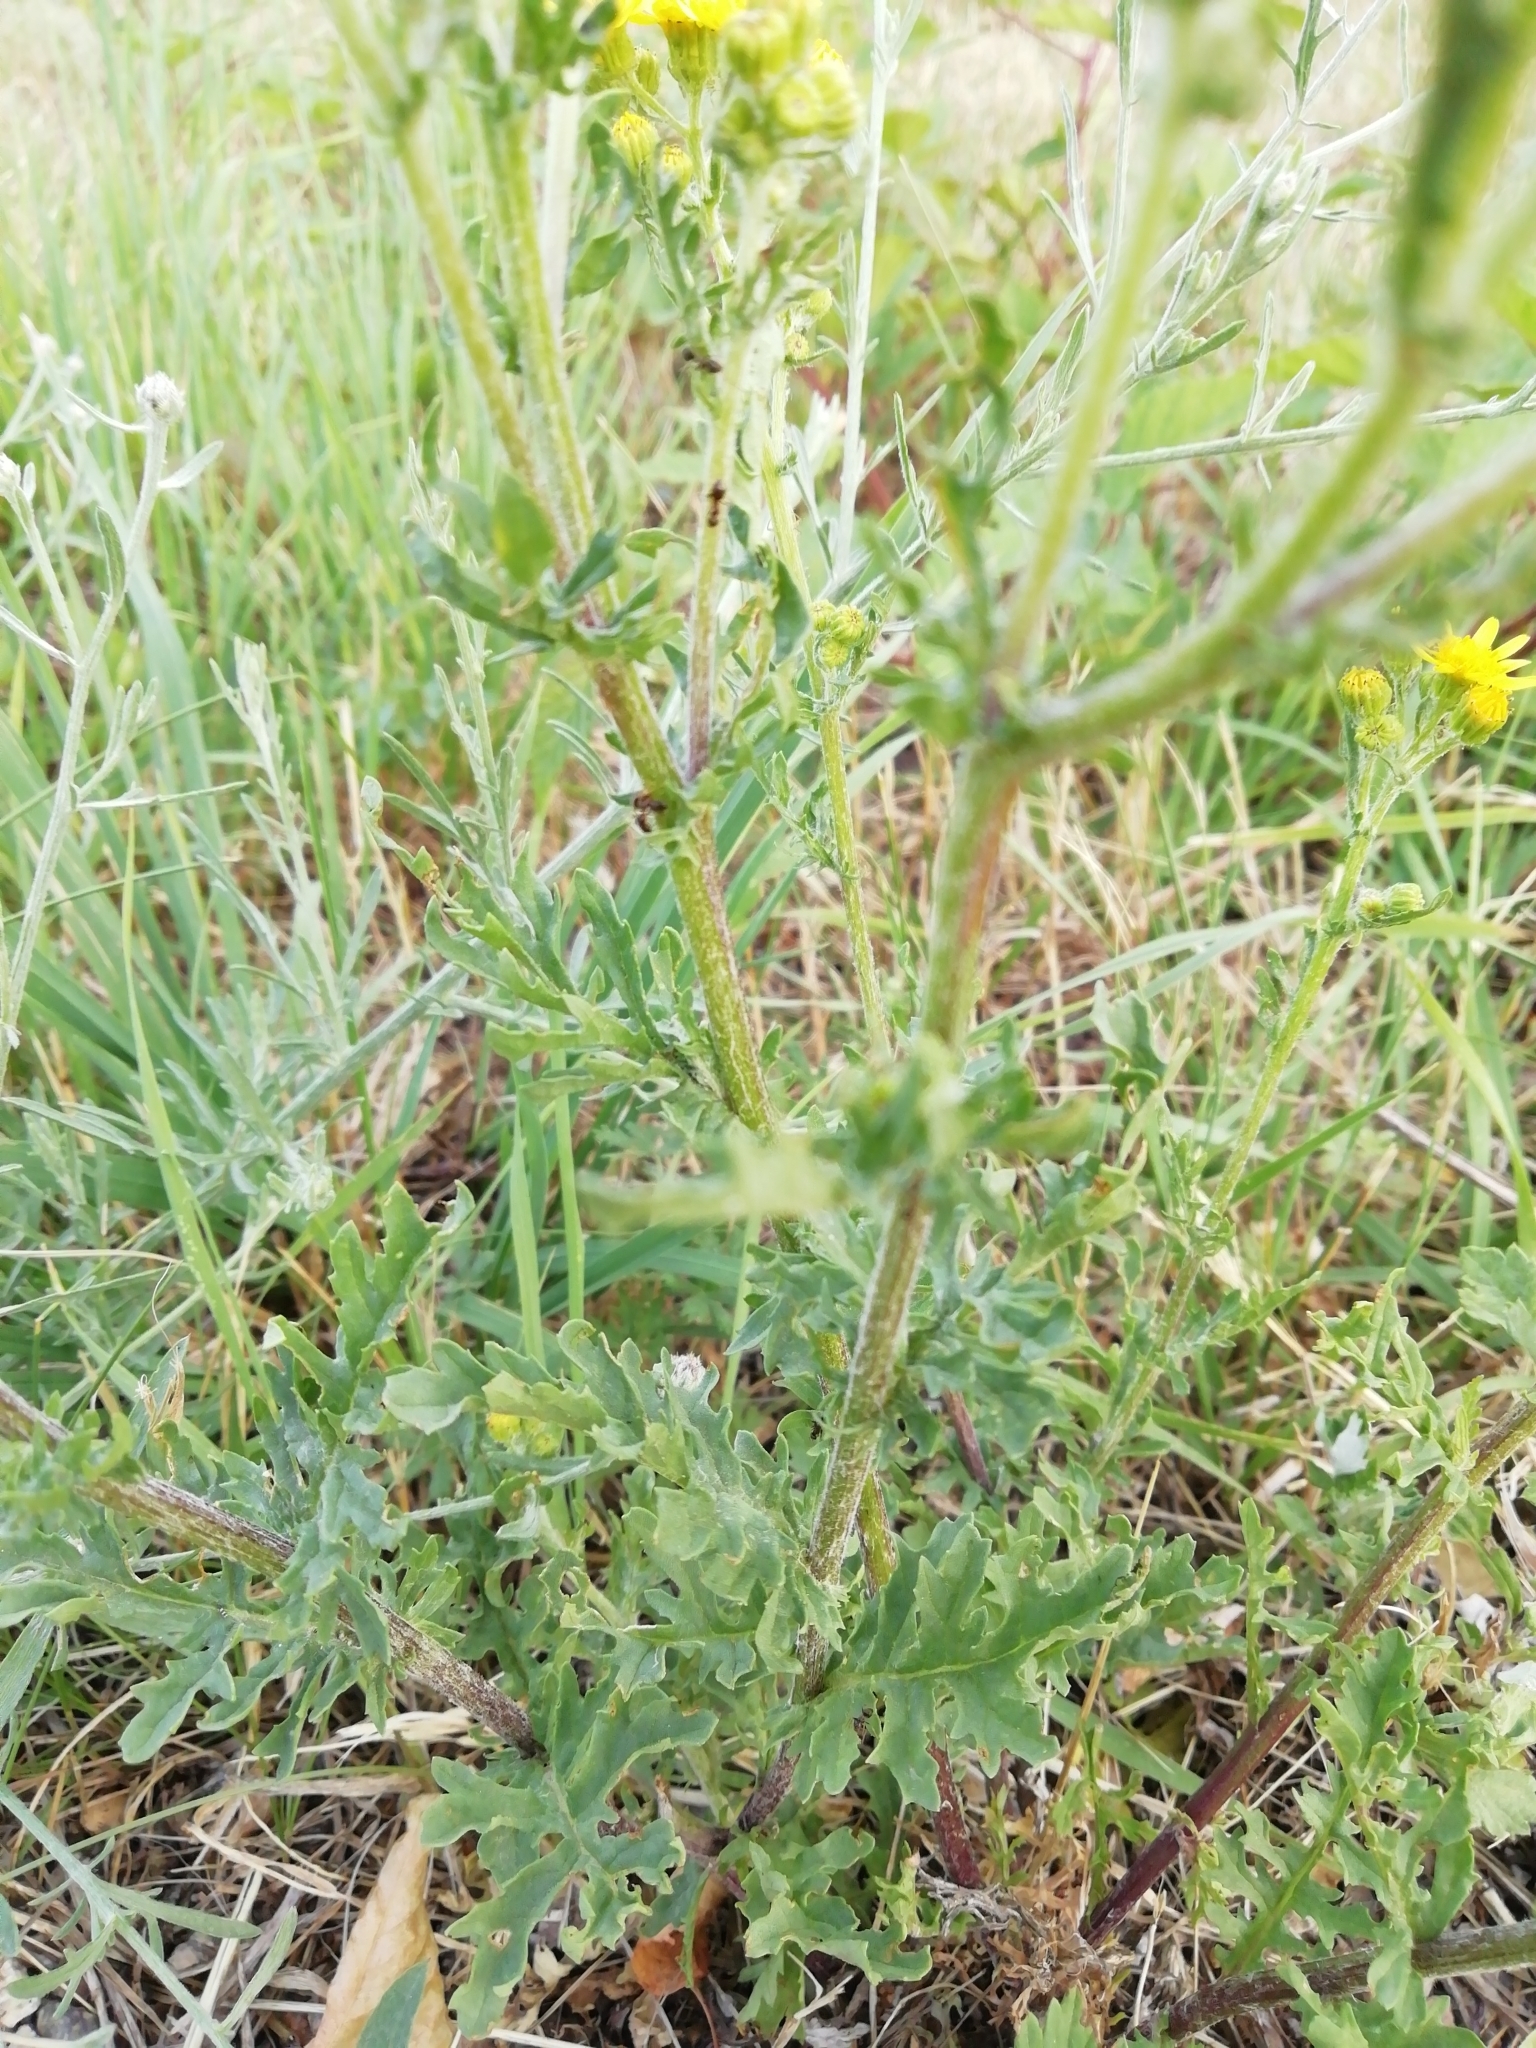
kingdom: Plantae
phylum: Tracheophyta
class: Magnoliopsida
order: Asterales
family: Asteraceae
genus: Jacobaea
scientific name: Jacobaea vulgaris
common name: Stinking willie
